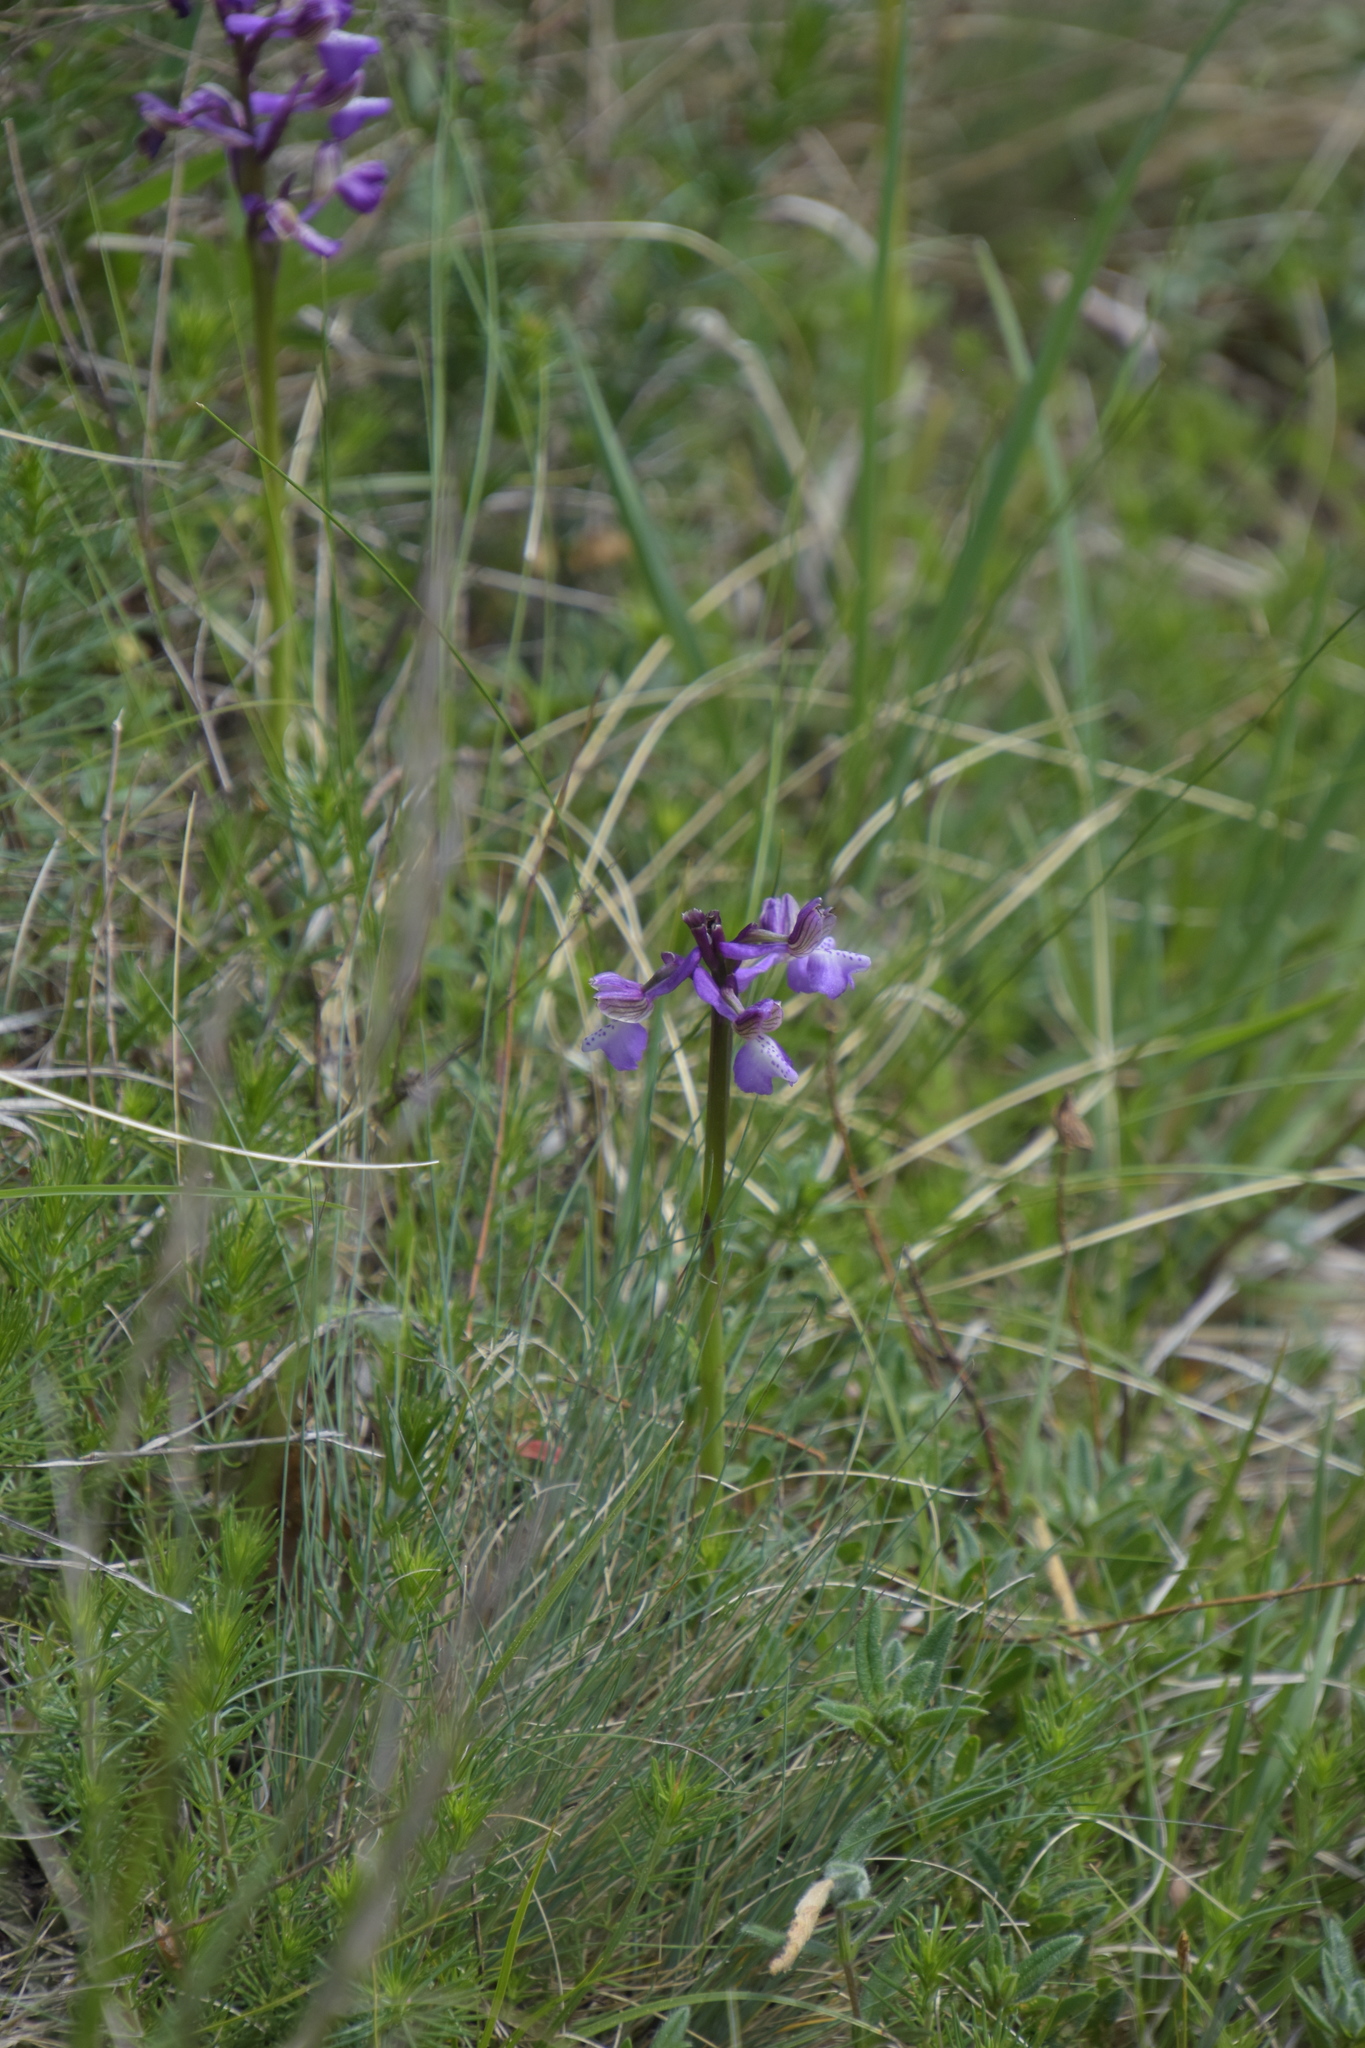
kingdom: Plantae
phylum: Tracheophyta
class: Liliopsida
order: Asparagales
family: Orchidaceae
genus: Anacamptis
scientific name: Anacamptis morio
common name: Green-winged orchid
